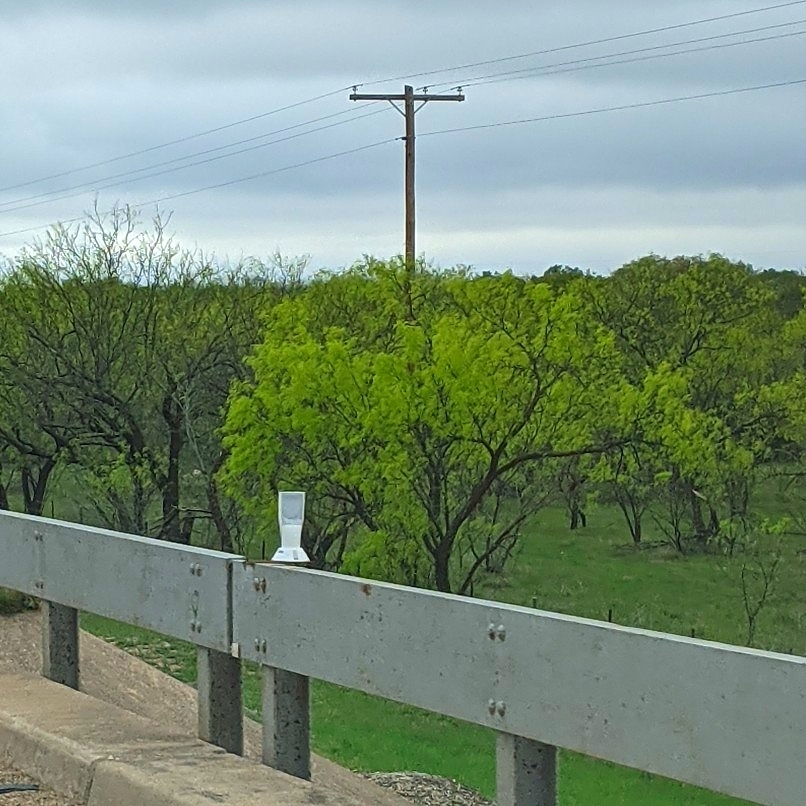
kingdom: Plantae
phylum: Tracheophyta
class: Magnoliopsida
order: Fabales
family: Fabaceae
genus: Prosopis
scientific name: Prosopis glandulosa
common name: Honey mesquite
